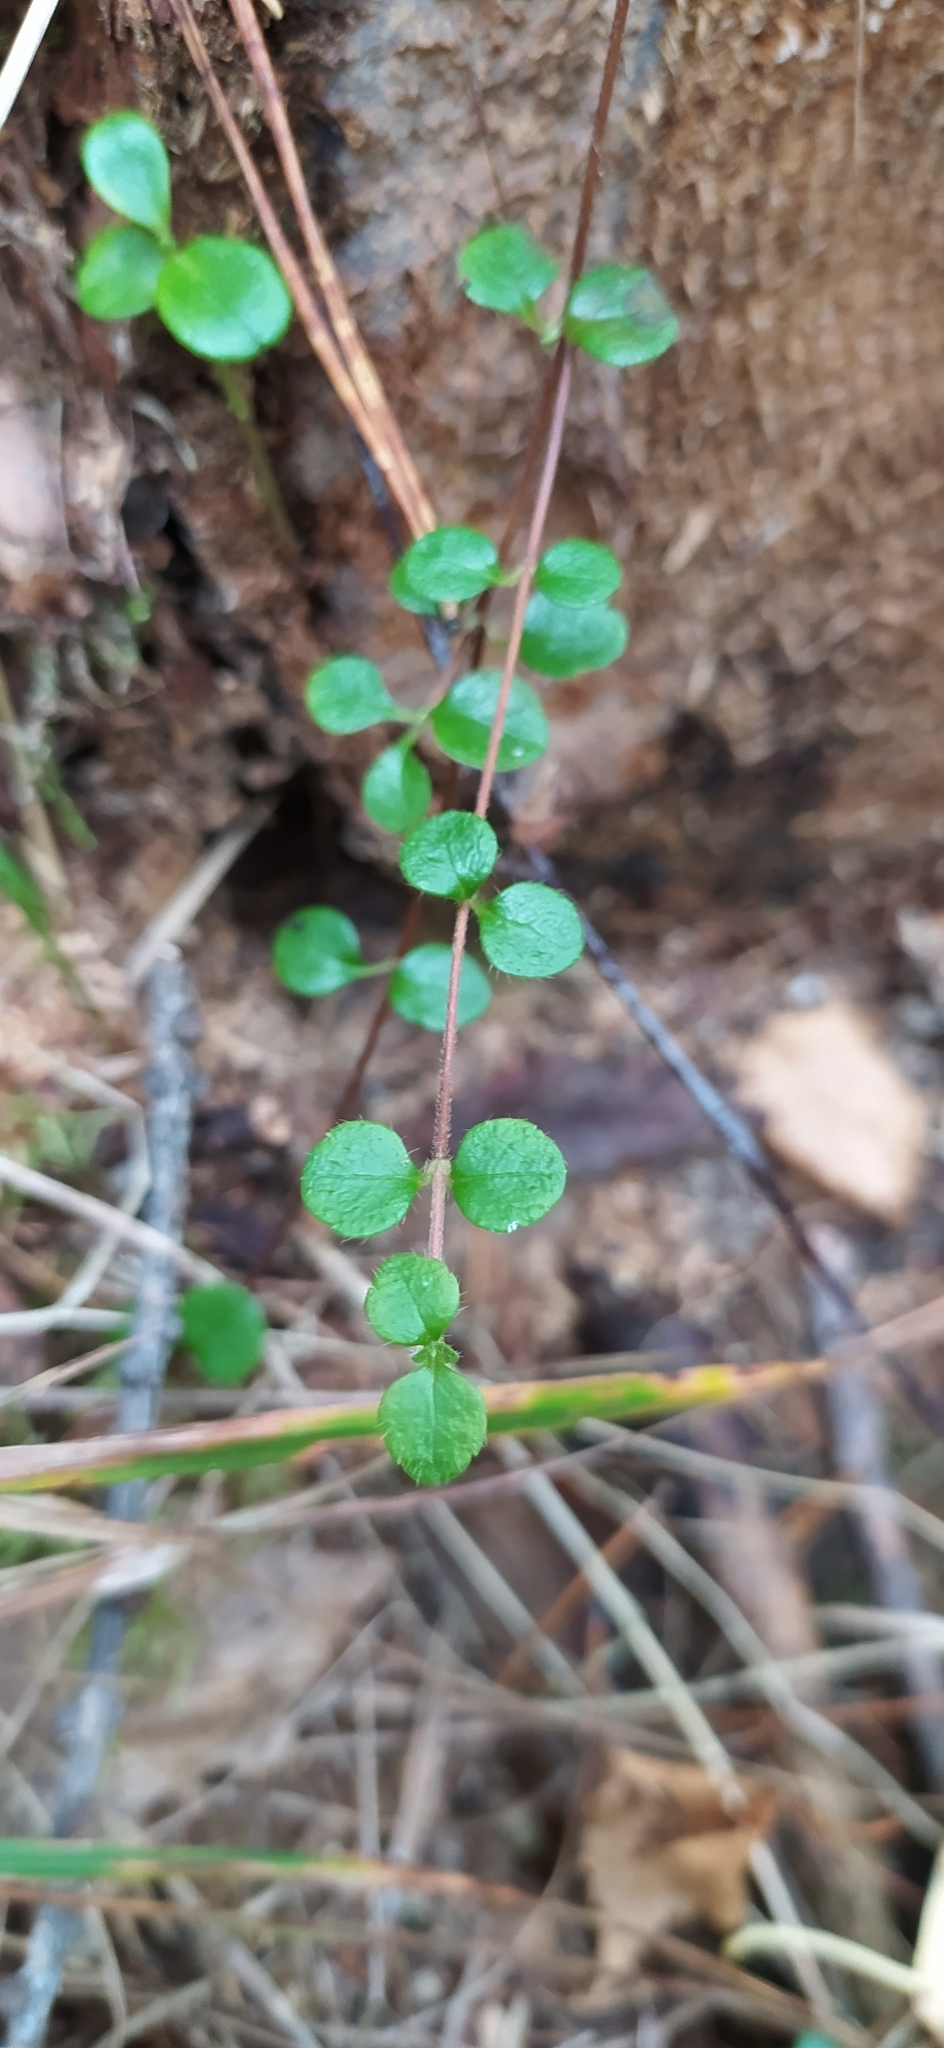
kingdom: Plantae
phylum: Tracheophyta
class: Magnoliopsida
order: Dipsacales
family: Caprifoliaceae
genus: Linnaea
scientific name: Linnaea borealis
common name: Twinflower
